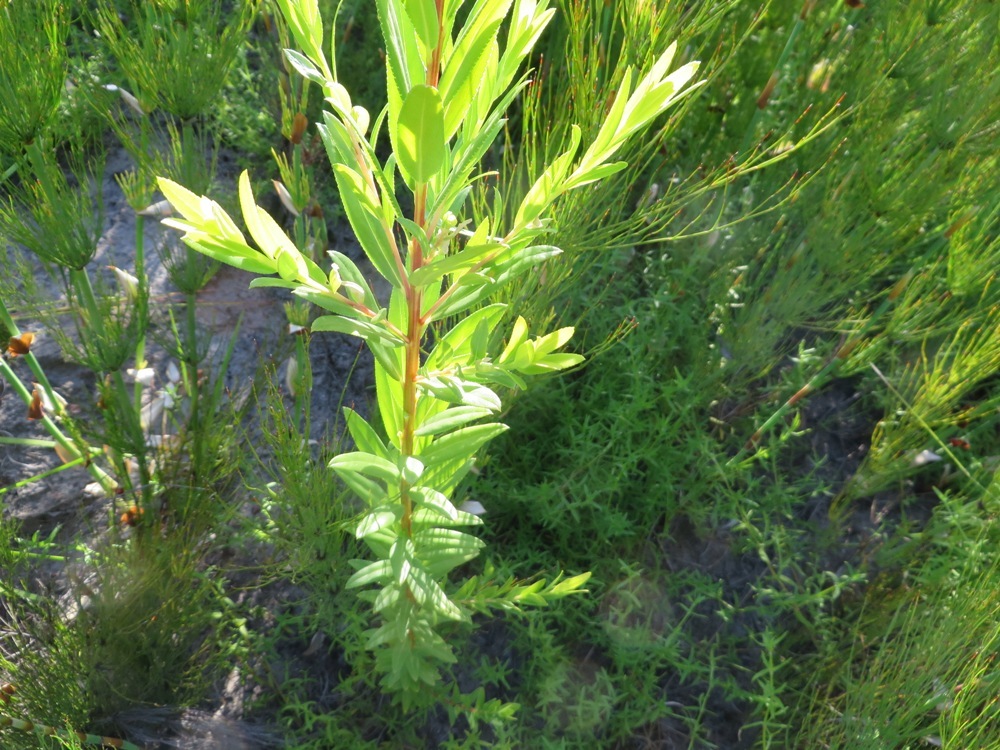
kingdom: Plantae
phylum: Tracheophyta
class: Magnoliopsida
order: Sapindales
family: Rutaceae
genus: Empleurum
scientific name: Empleurum unicapsulare
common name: False buchu
